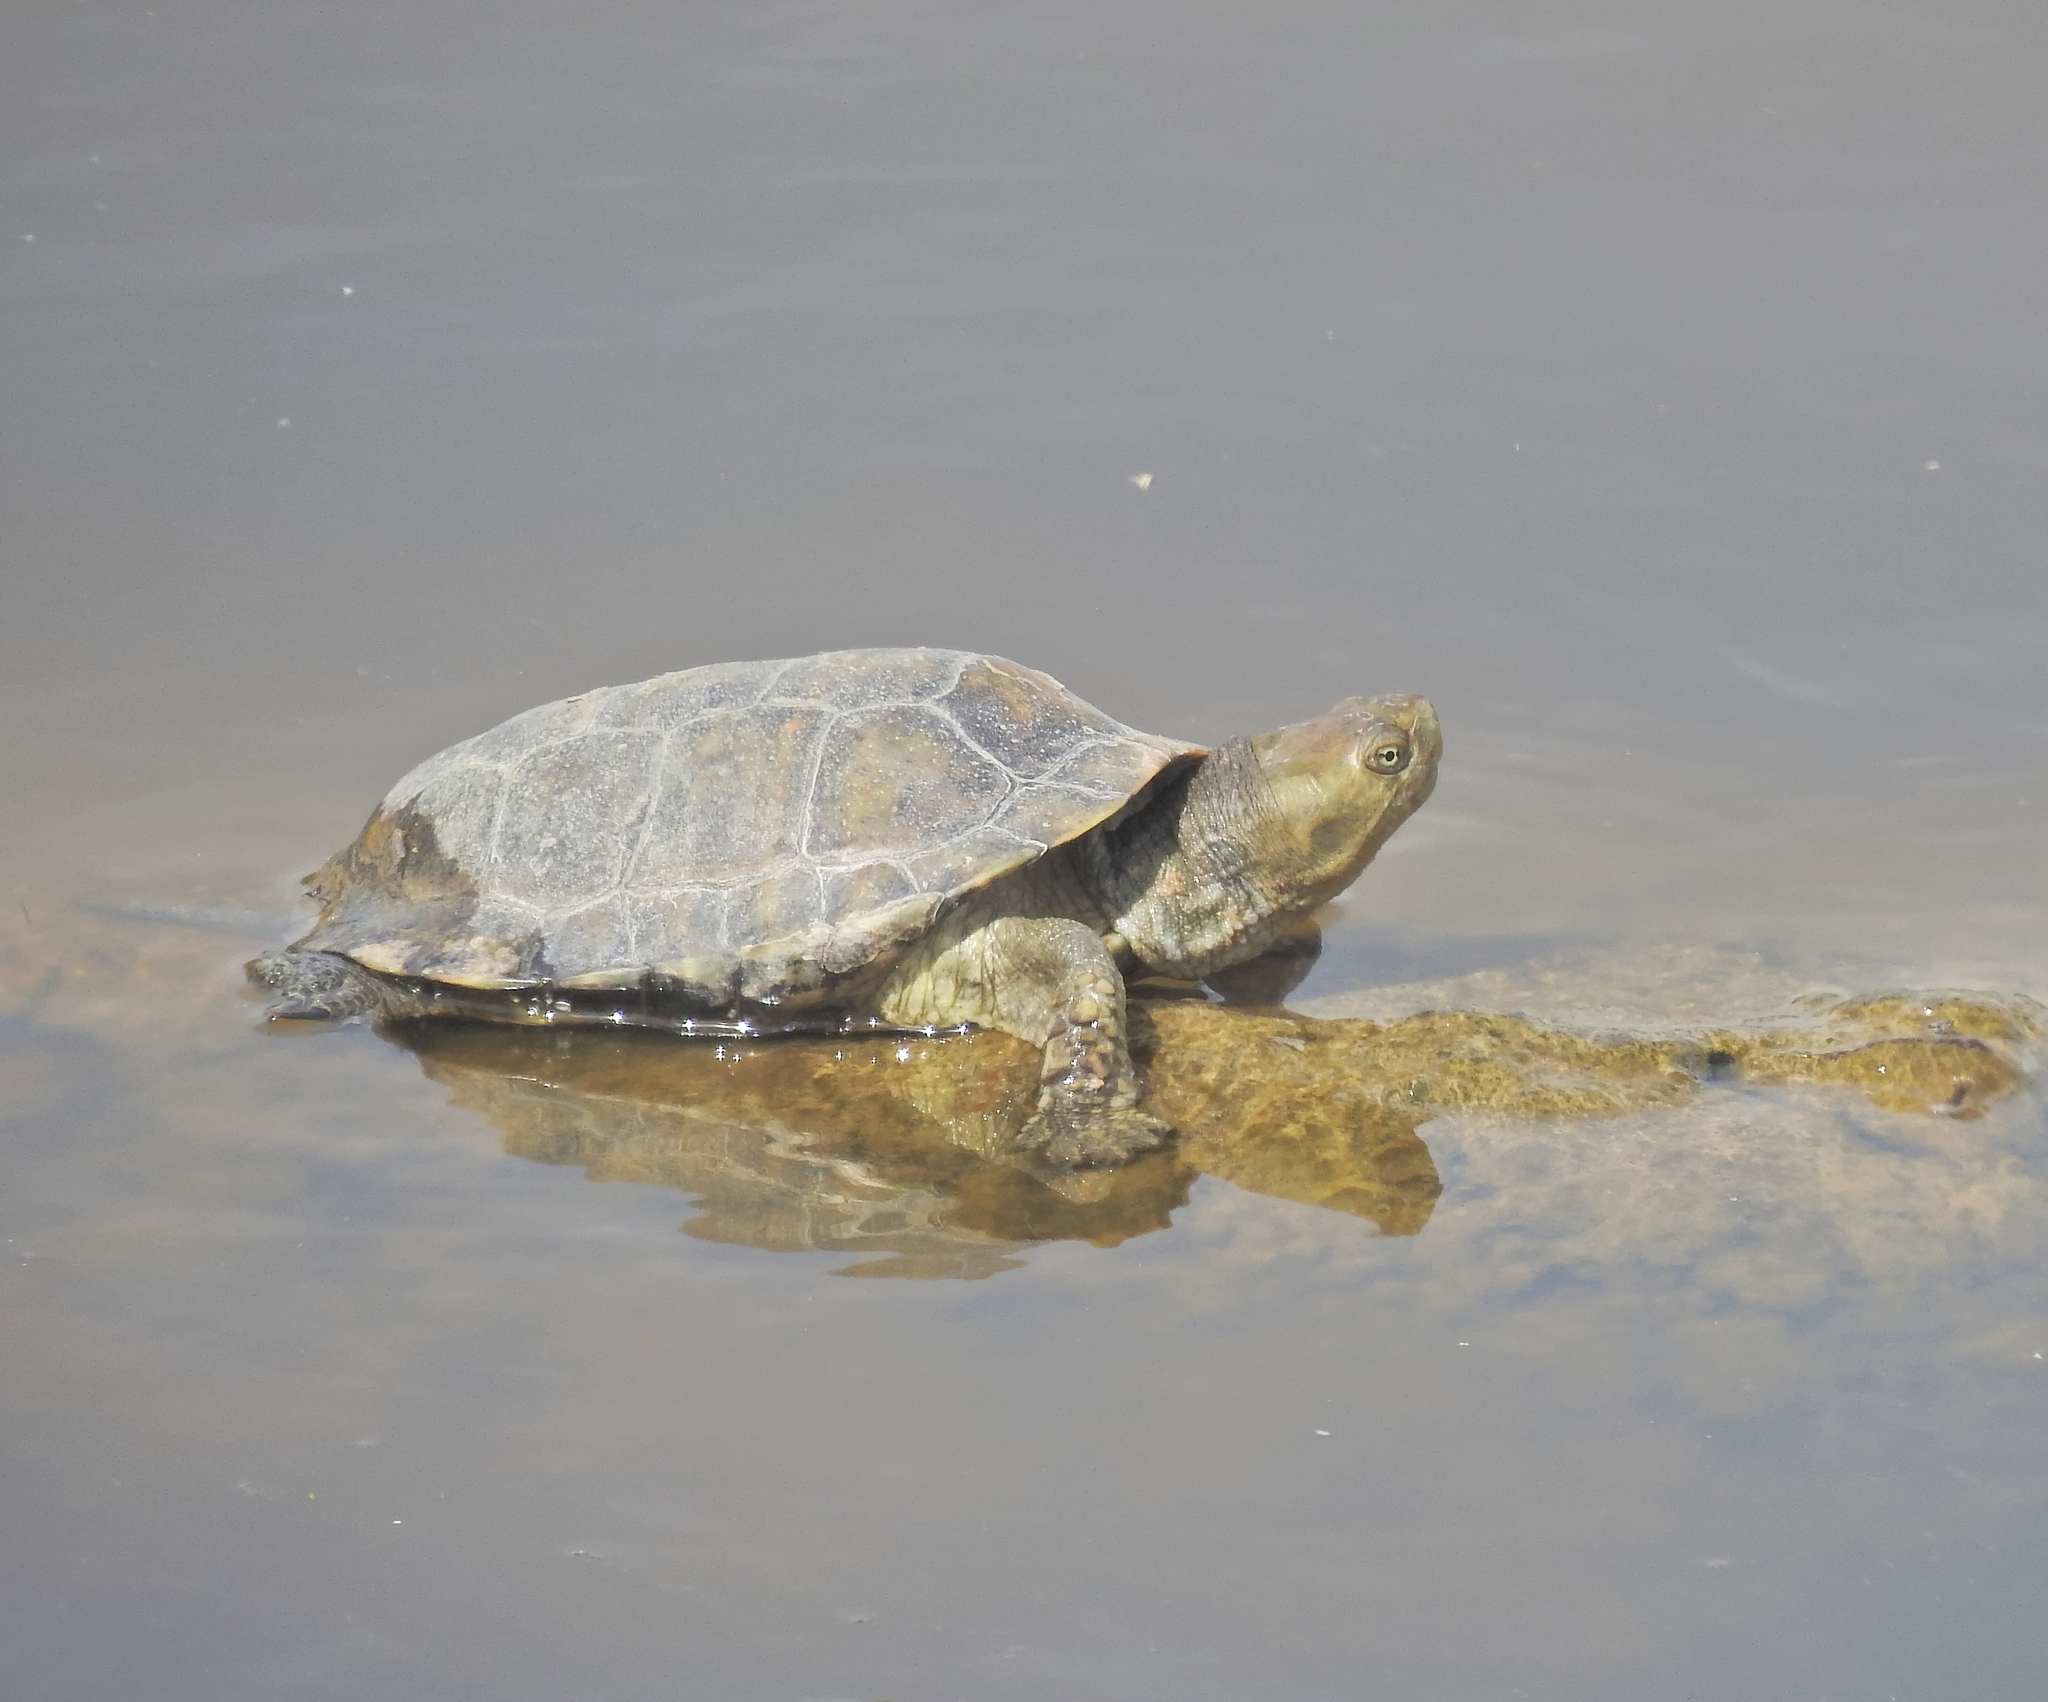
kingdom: Animalia
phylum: Chordata
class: Testudines
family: Geoemydidae
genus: Mauremys
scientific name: Mauremys leprosa
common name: Mediterranean pond turtle
